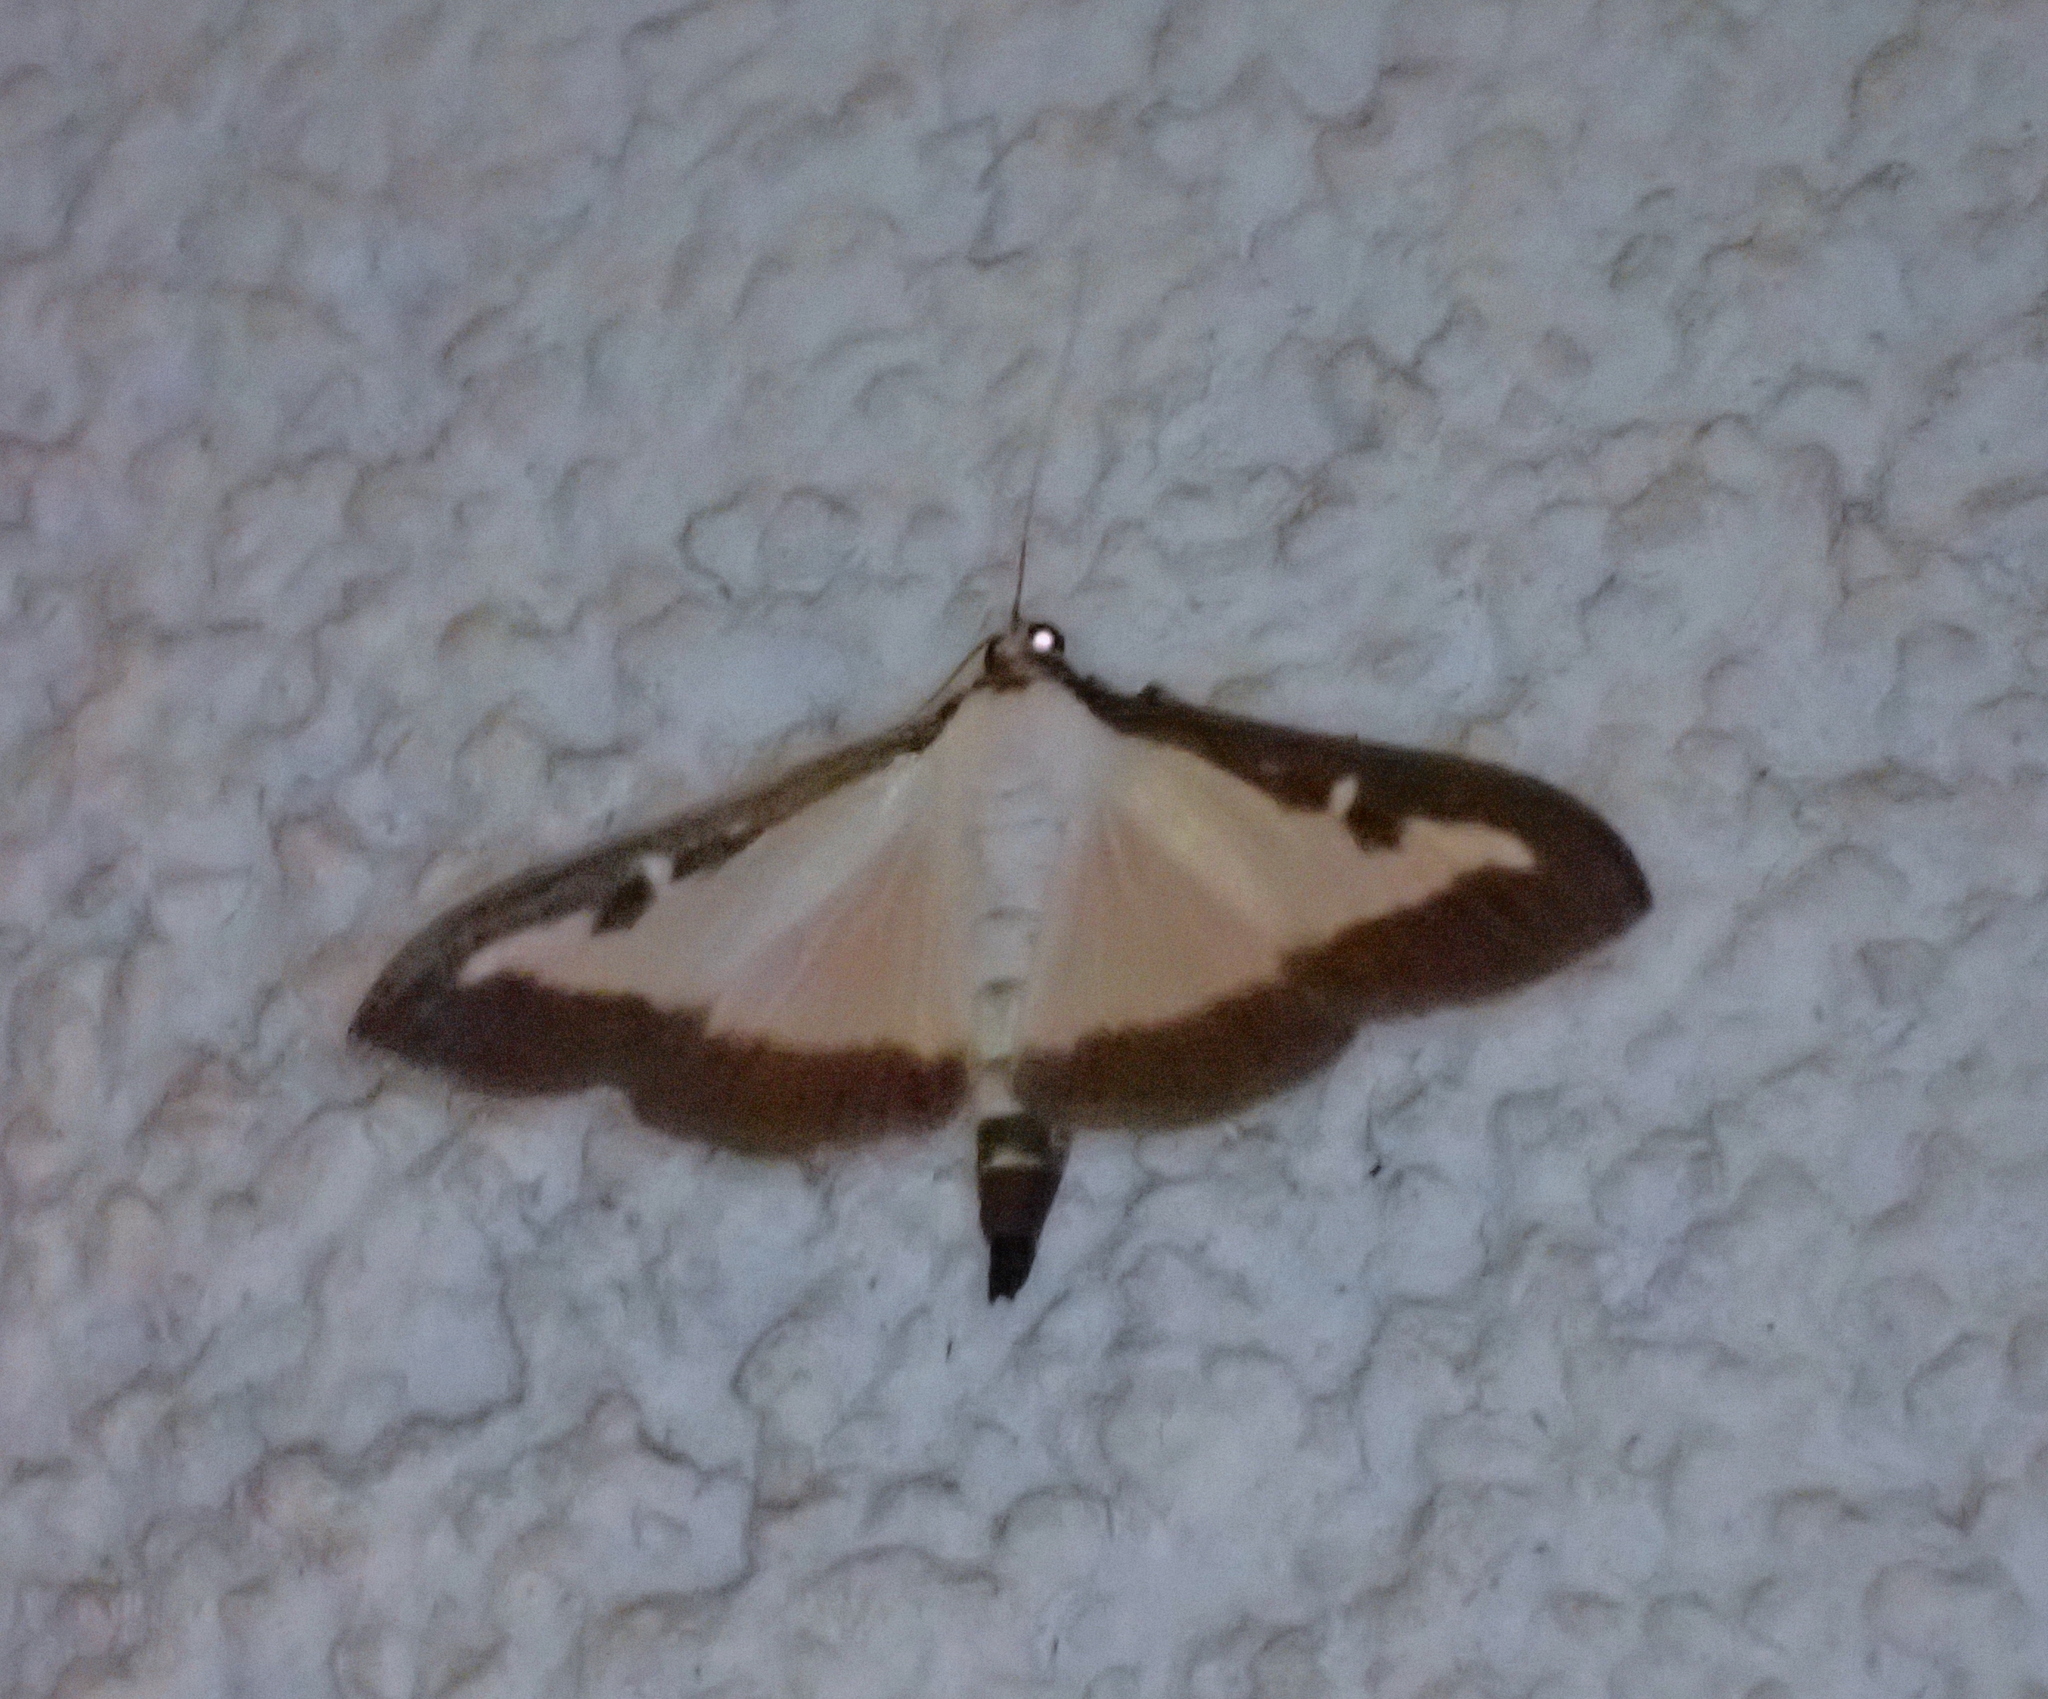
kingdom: Animalia
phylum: Arthropoda
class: Insecta
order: Lepidoptera
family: Crambidae
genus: Cydalima
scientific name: Cydalima perspectalis
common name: Box tree moth
